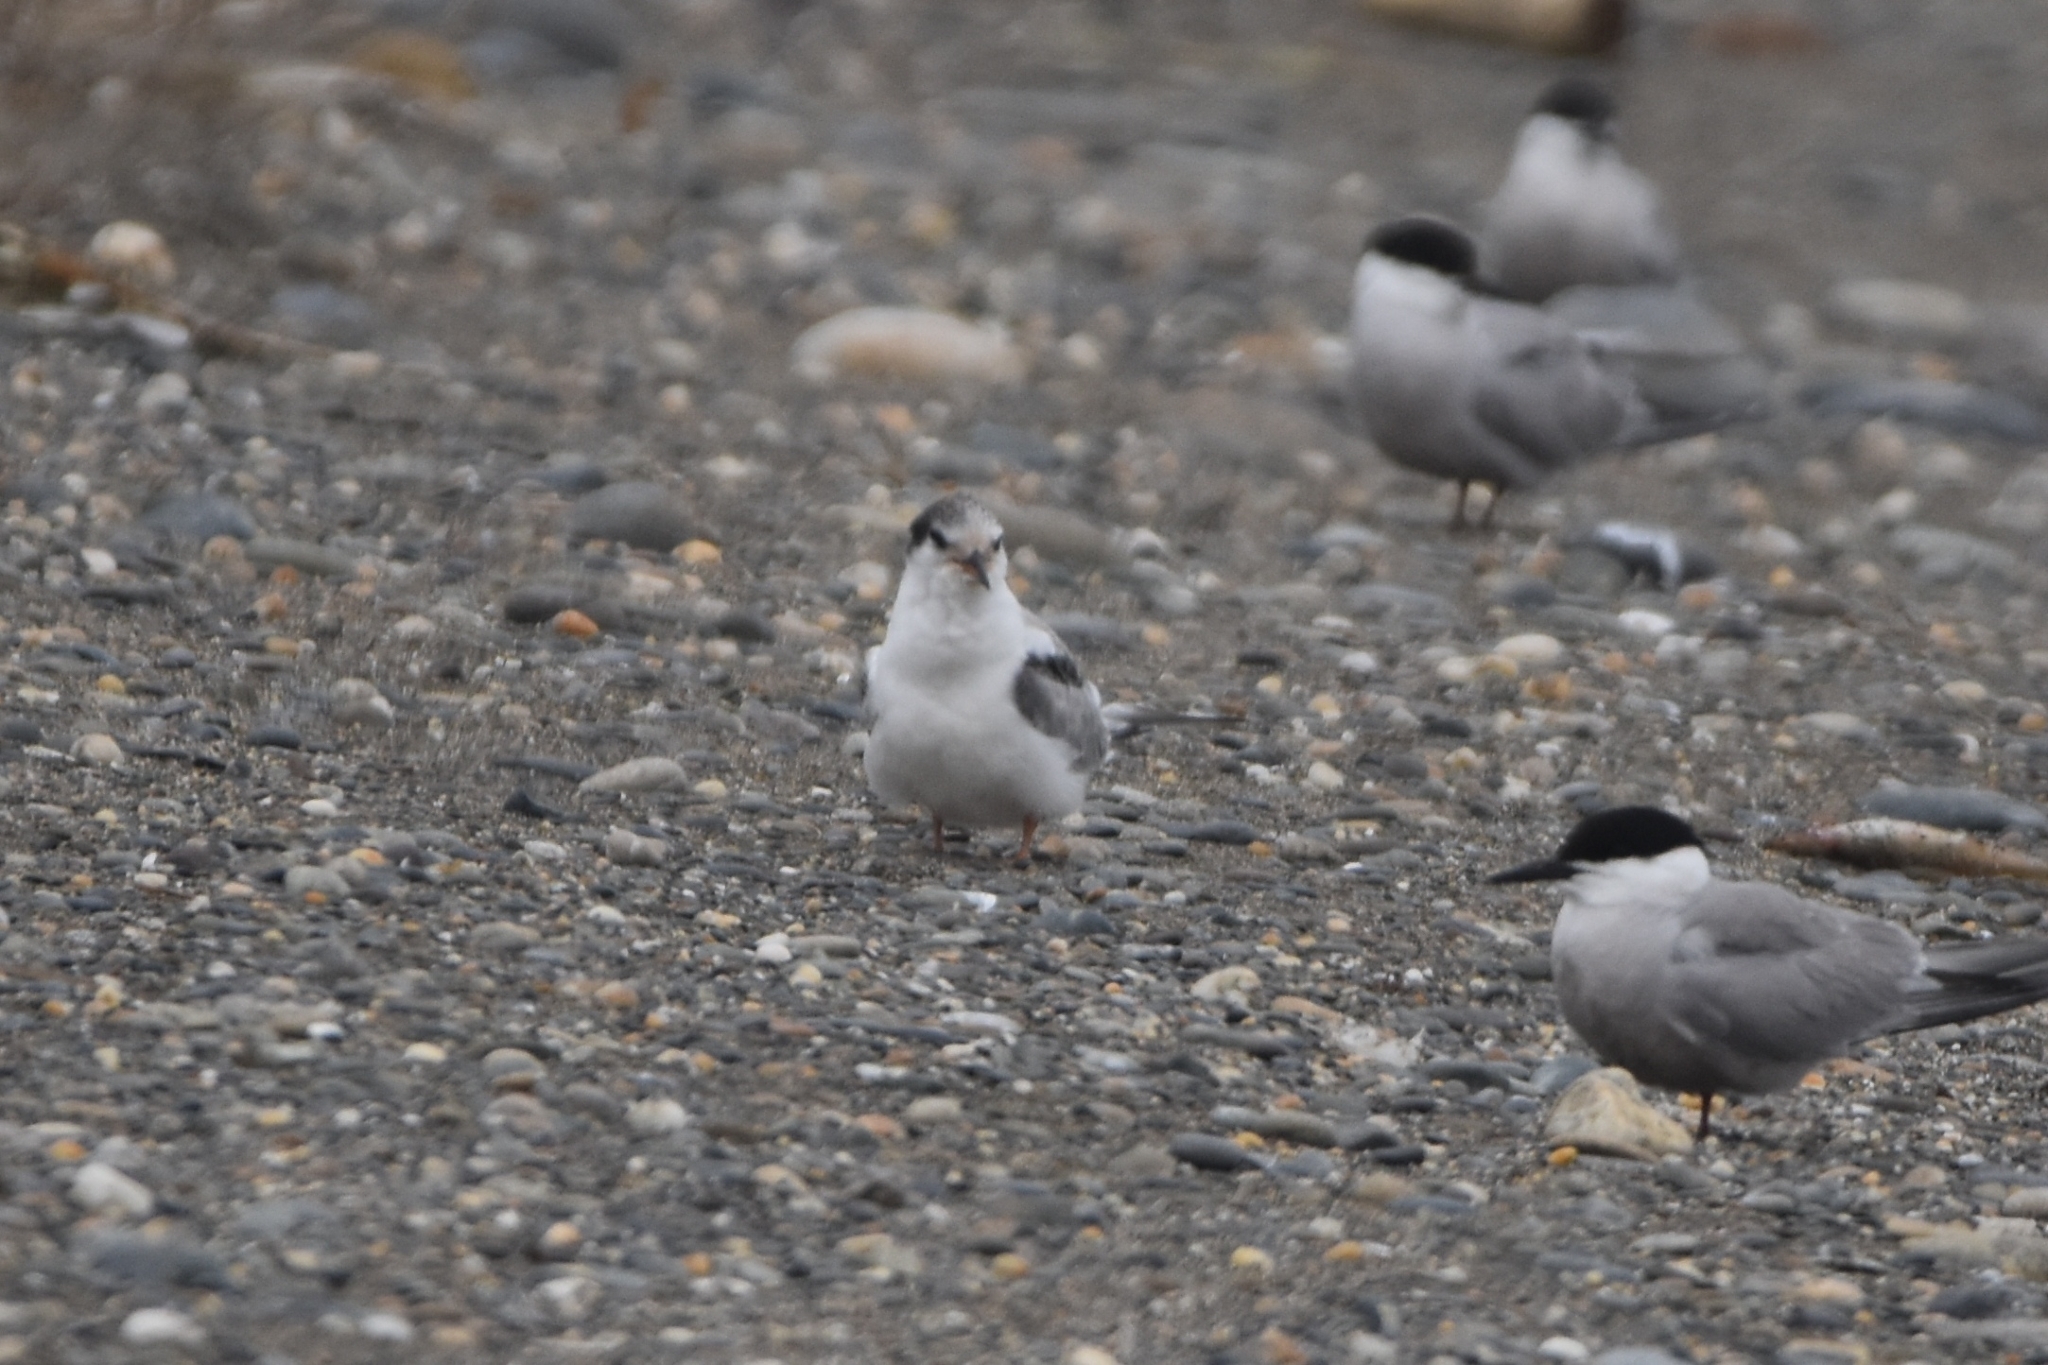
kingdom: Animalia
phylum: Chordata
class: Aves
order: Charadriiformes
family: Laridae
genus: Sterna
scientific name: Sterna hirundo
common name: Common tern
